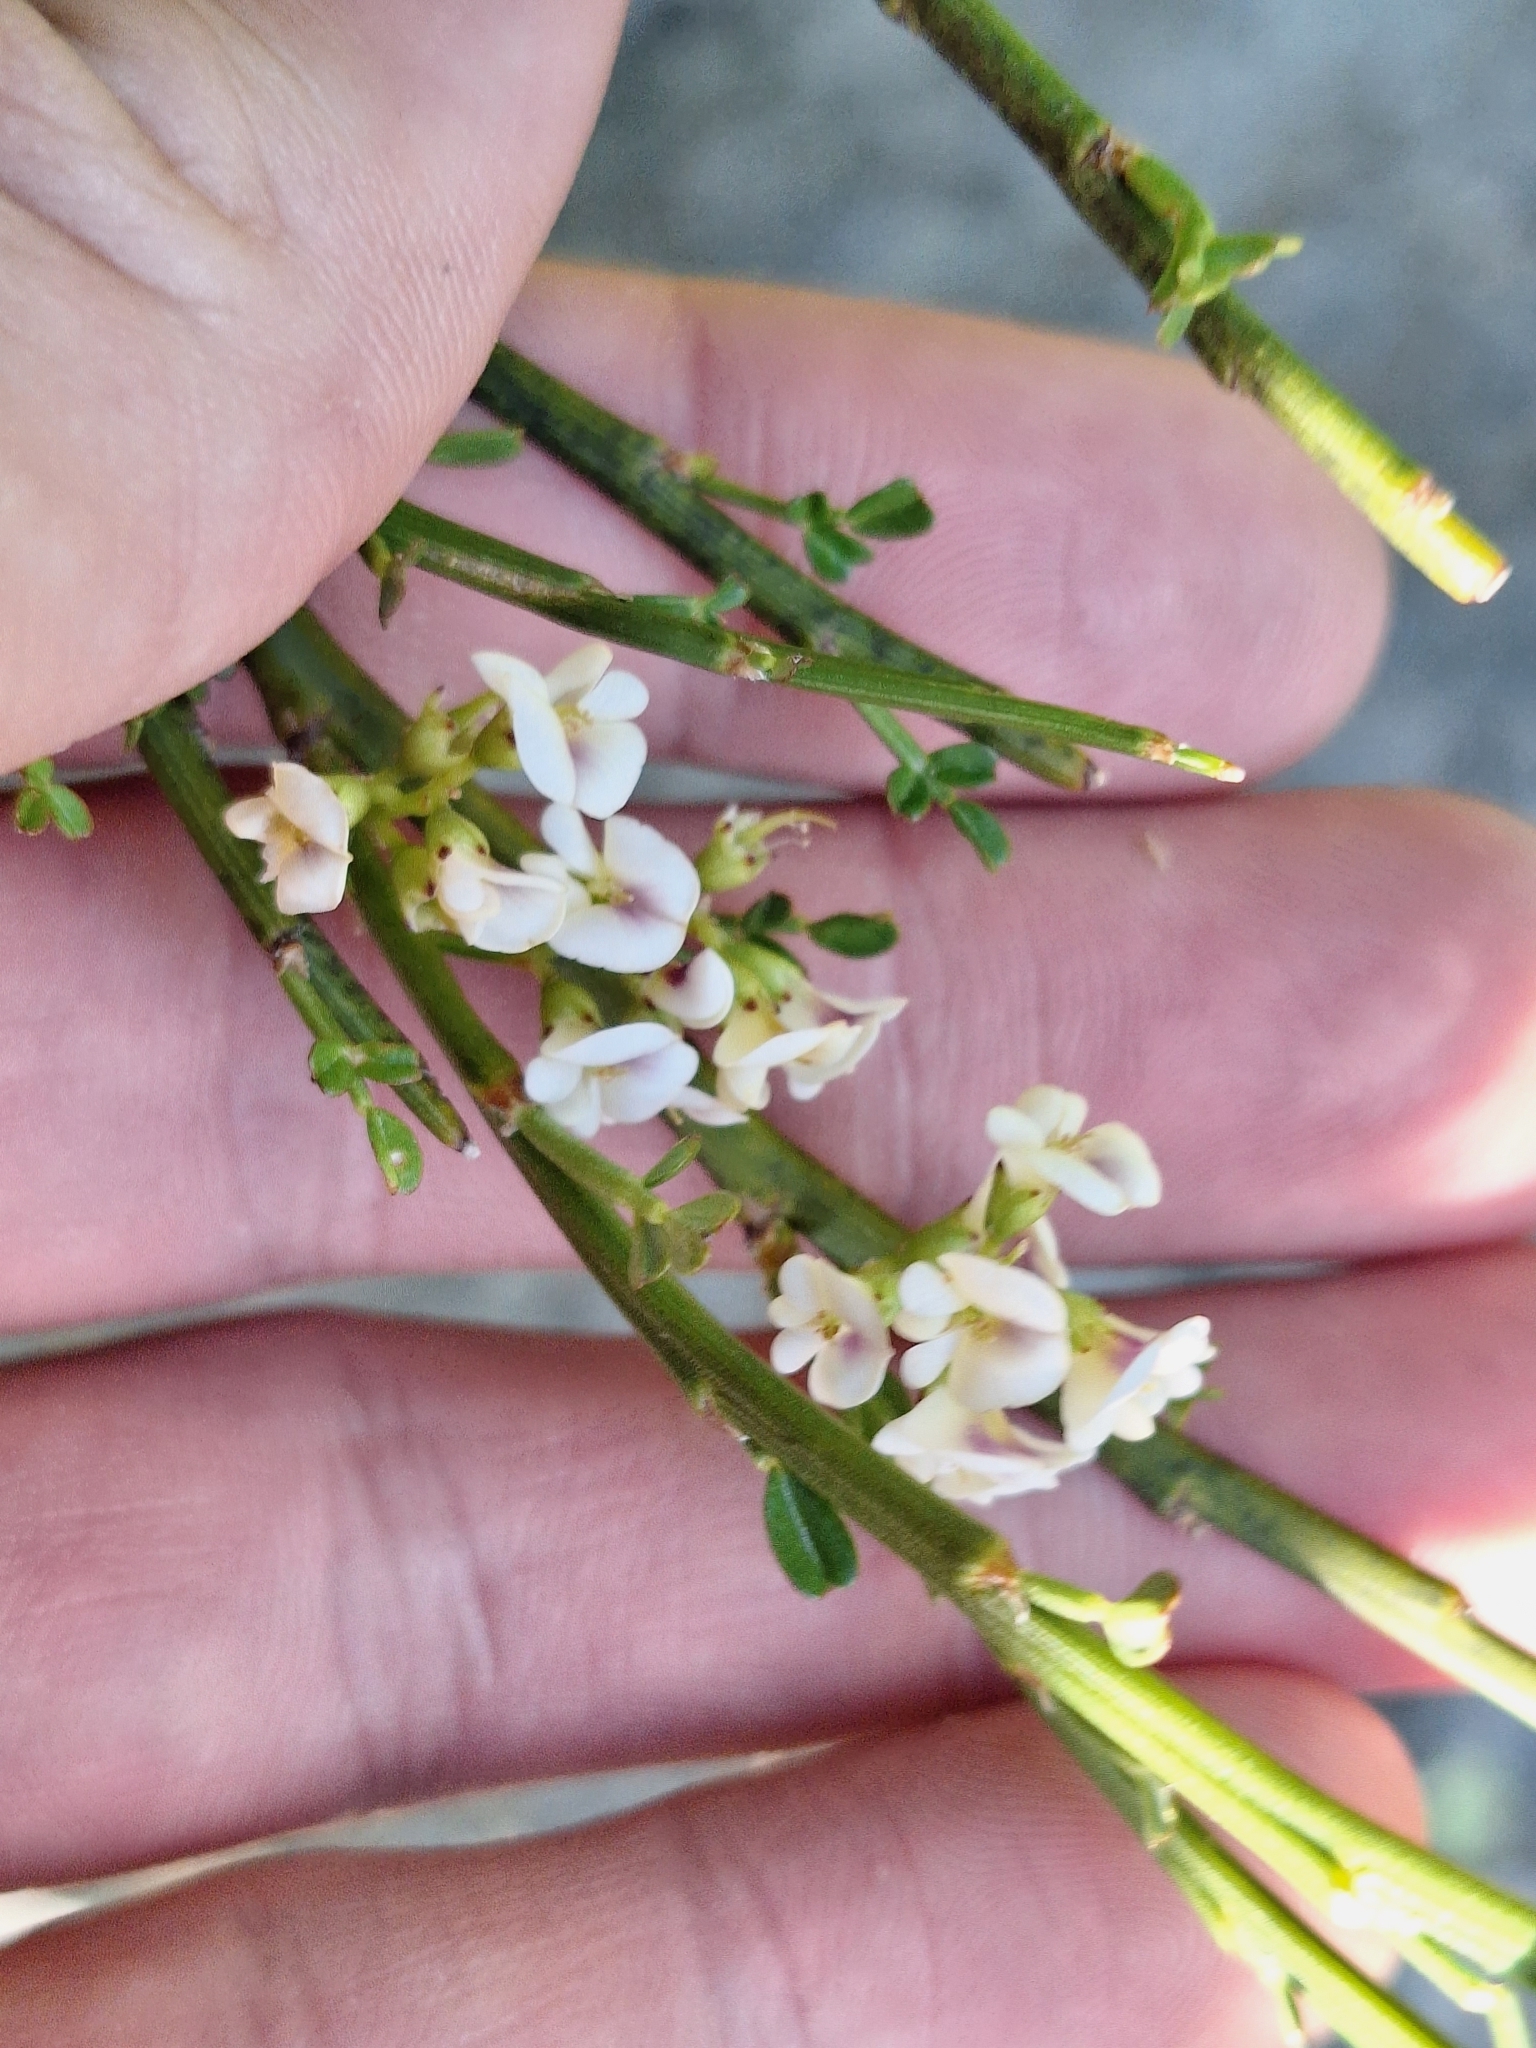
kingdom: Plantae
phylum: Tracheophyta
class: Magnoliopsida
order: Fabales
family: Fabaceae
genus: Carmichaelia
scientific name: Carmichaelia arborea
